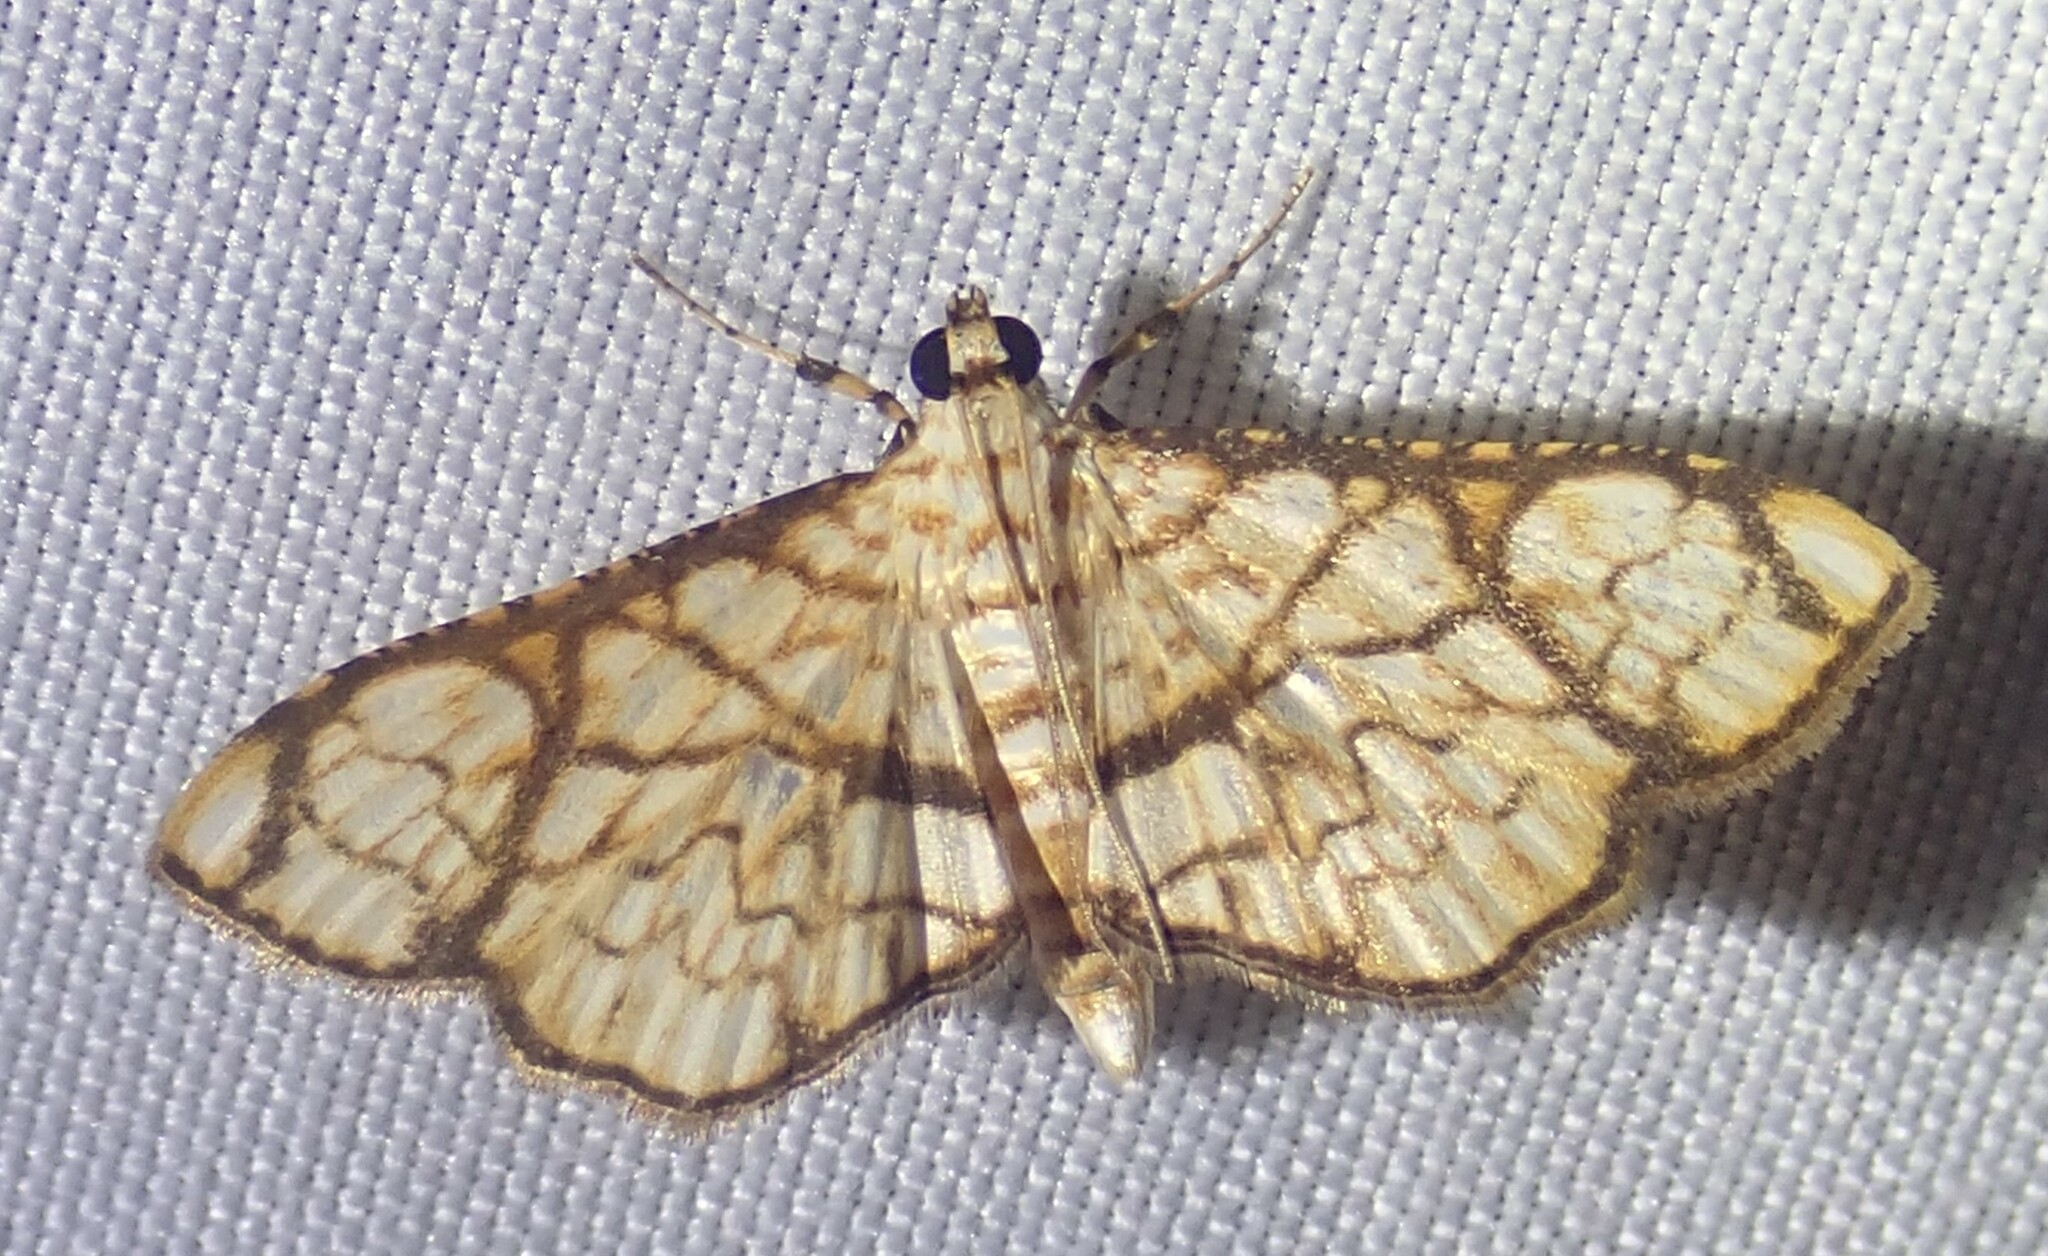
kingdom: Animalia
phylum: Arthropoda
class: Insecta
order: Lepidoptera
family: Crambidae
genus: Hileithia
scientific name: Hileithia obliqualis
